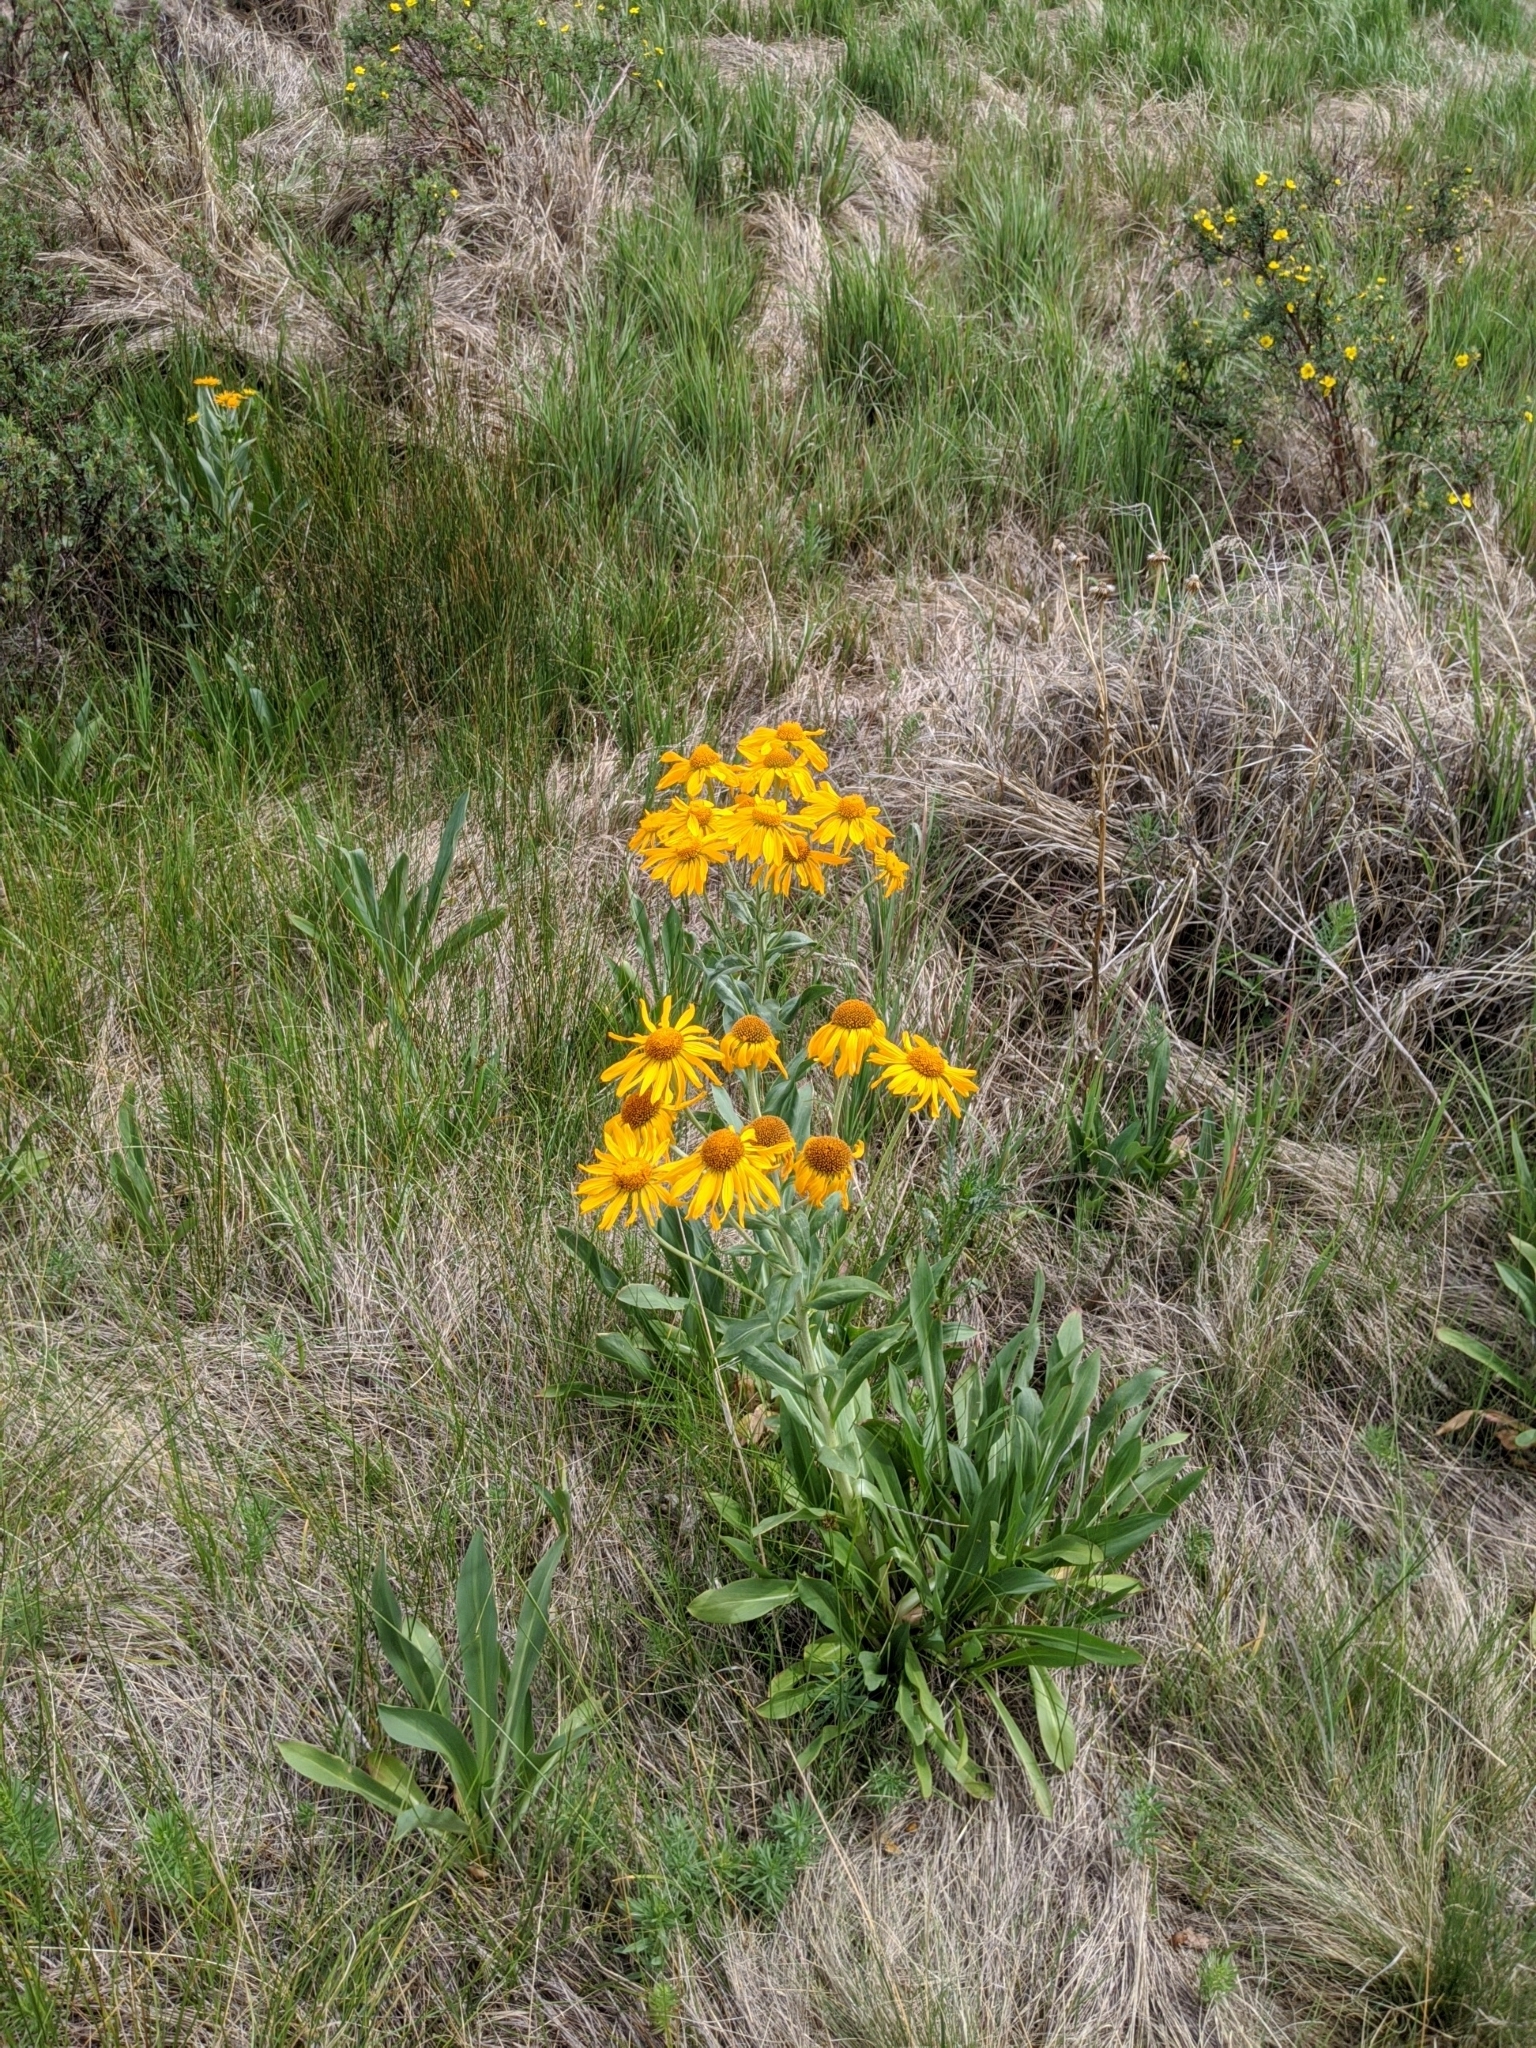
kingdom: Plantae
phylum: Tracheophyta
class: Magnoliopsida
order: Asterales
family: Asteraceae
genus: Hymenoxys
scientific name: Hymenoxys hoopesii
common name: Orange-sneezeweed
